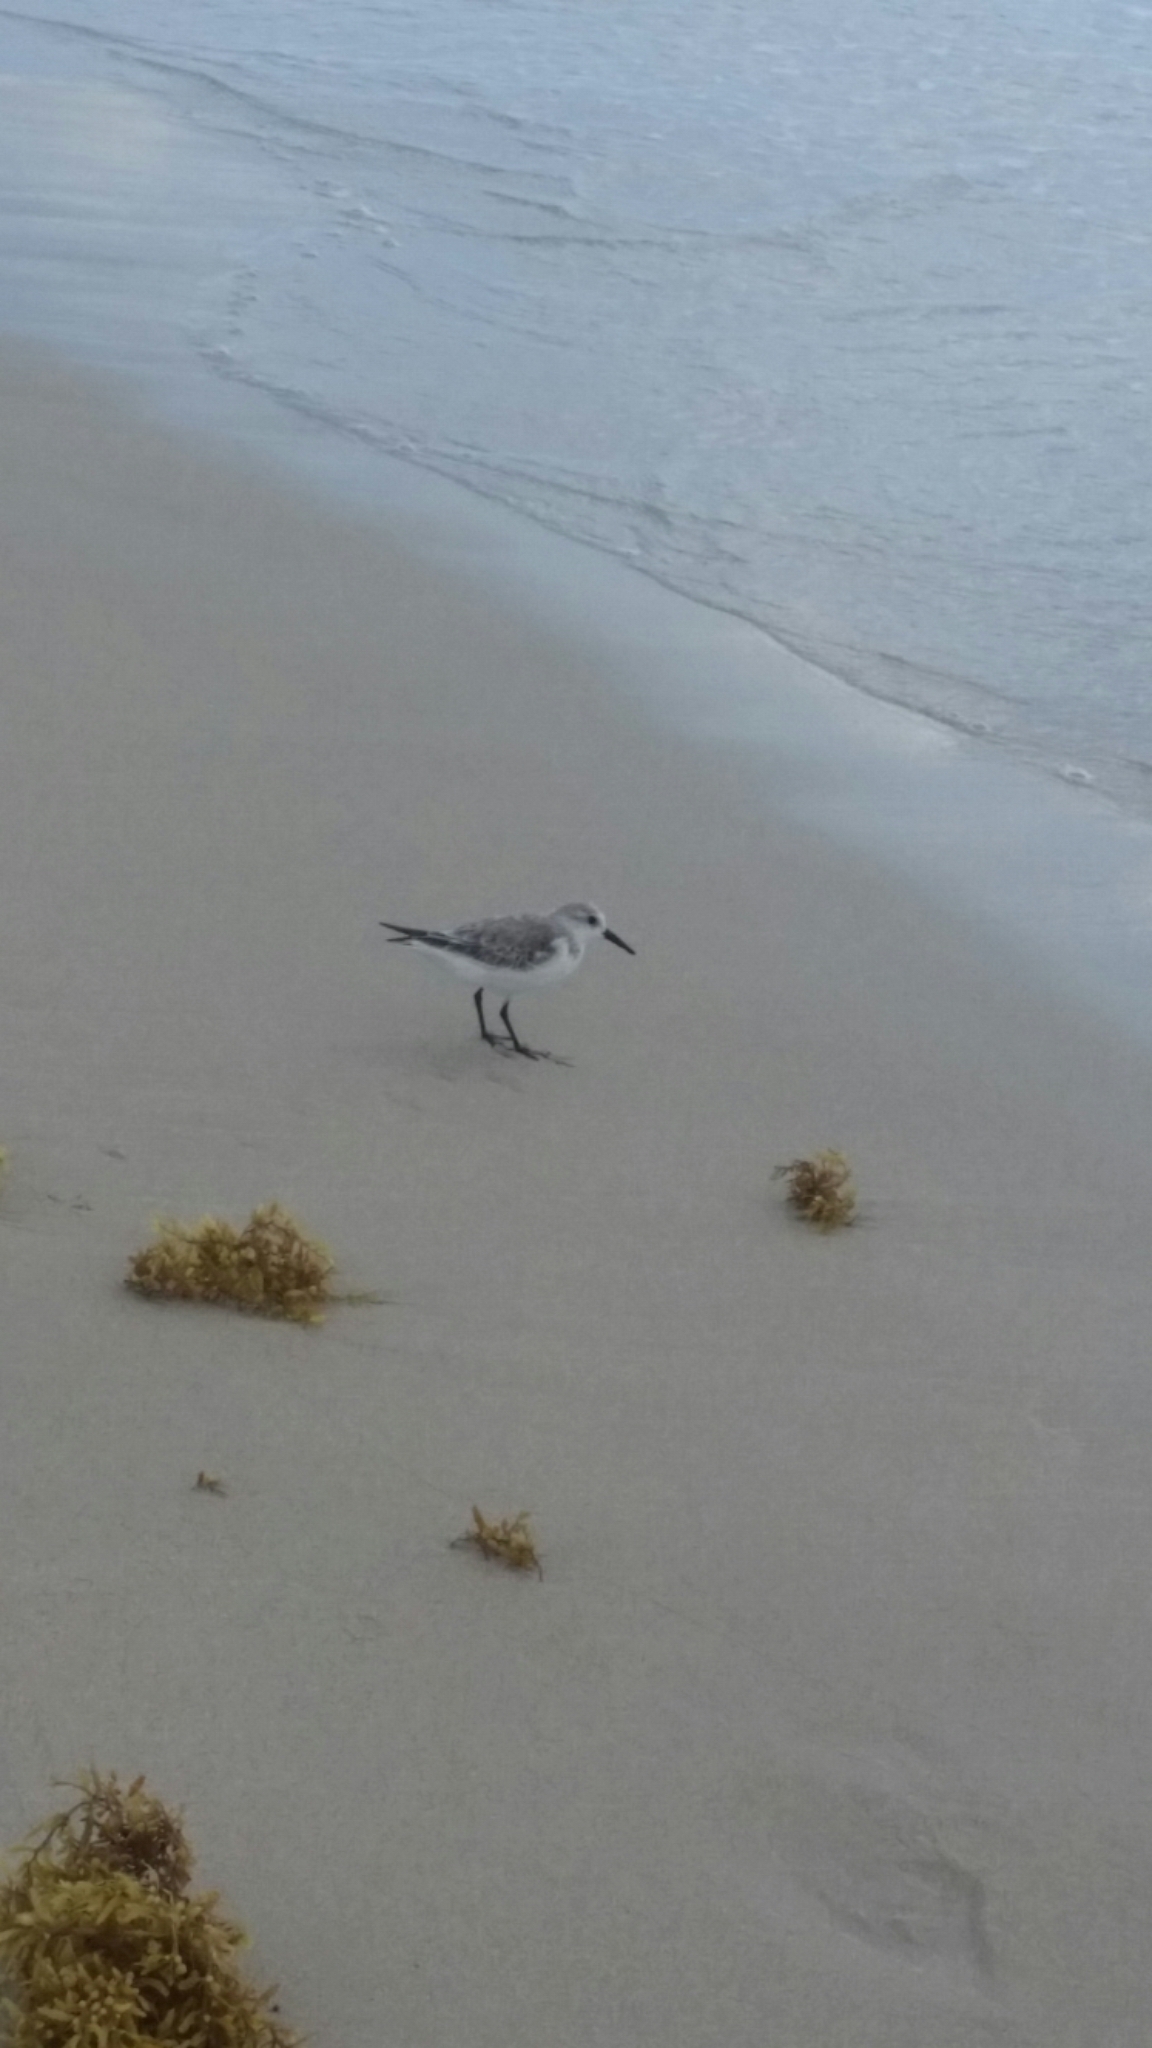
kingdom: Animalia
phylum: Chordata
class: Aves
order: Charadriiformes
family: Scolopacidae
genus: Calidris
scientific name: Calidris alba
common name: Sanderling
